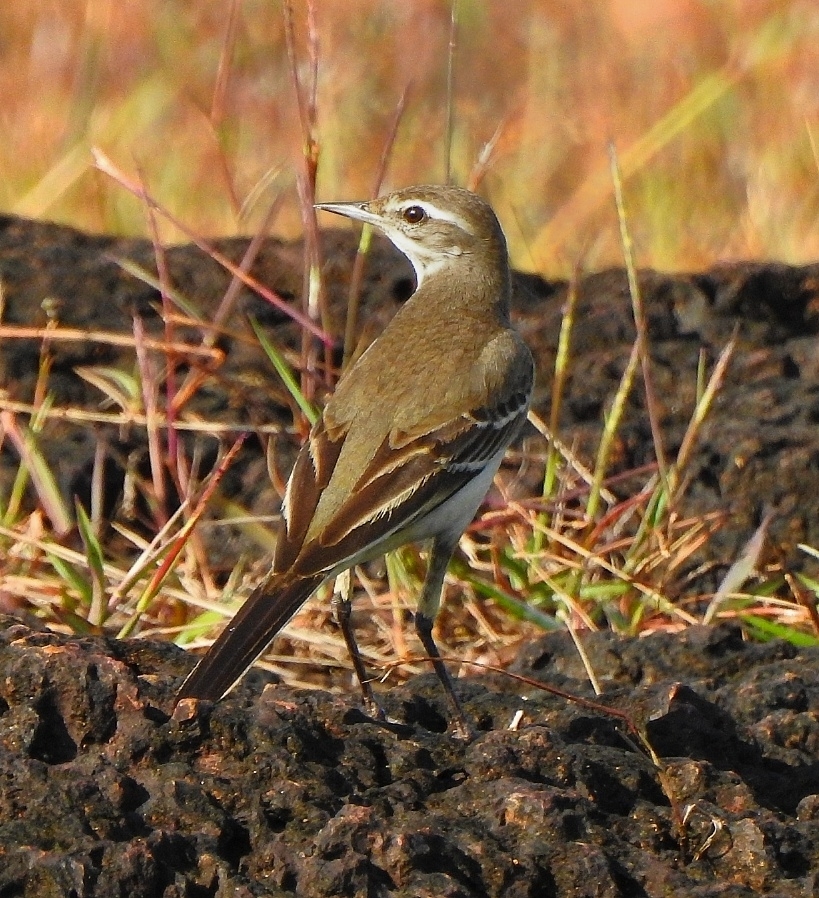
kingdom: Animalia
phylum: Chordata
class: Aves
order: Passeriformes
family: Motacillidae
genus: Motacilla
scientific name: Motacilla flava
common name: Western yellow wagtail
